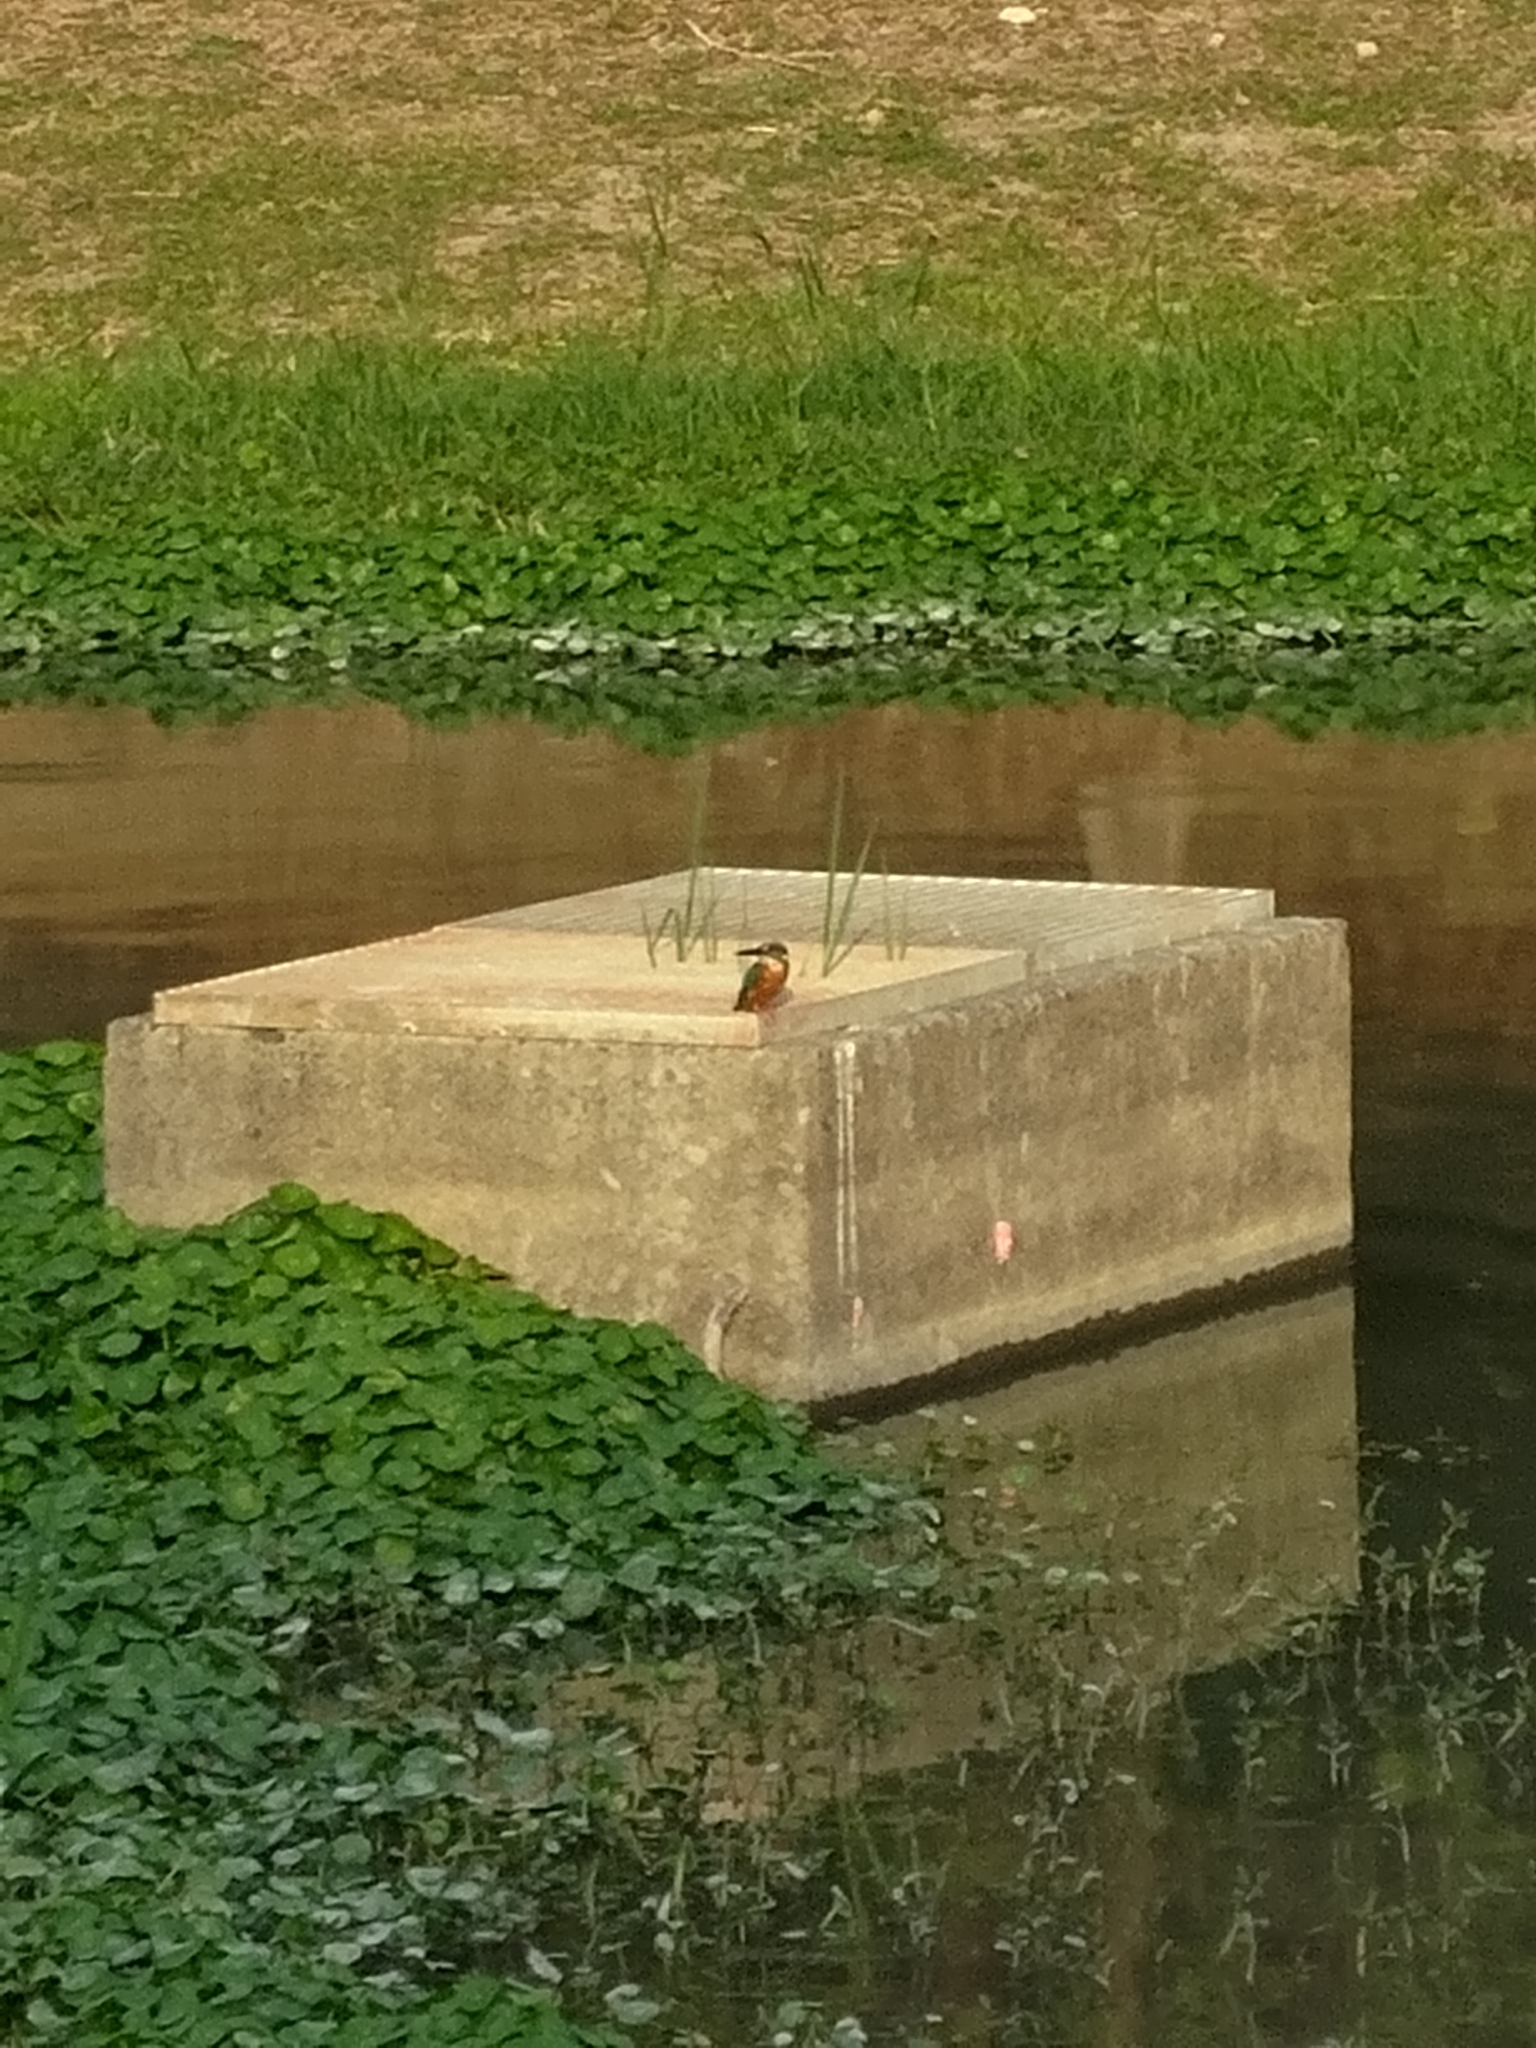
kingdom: Animalia
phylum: Chordata
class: Aves
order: Coraciiformes
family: Alcedinidae
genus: Alcedo
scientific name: Alcedo atthis
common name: Common kingfisher
